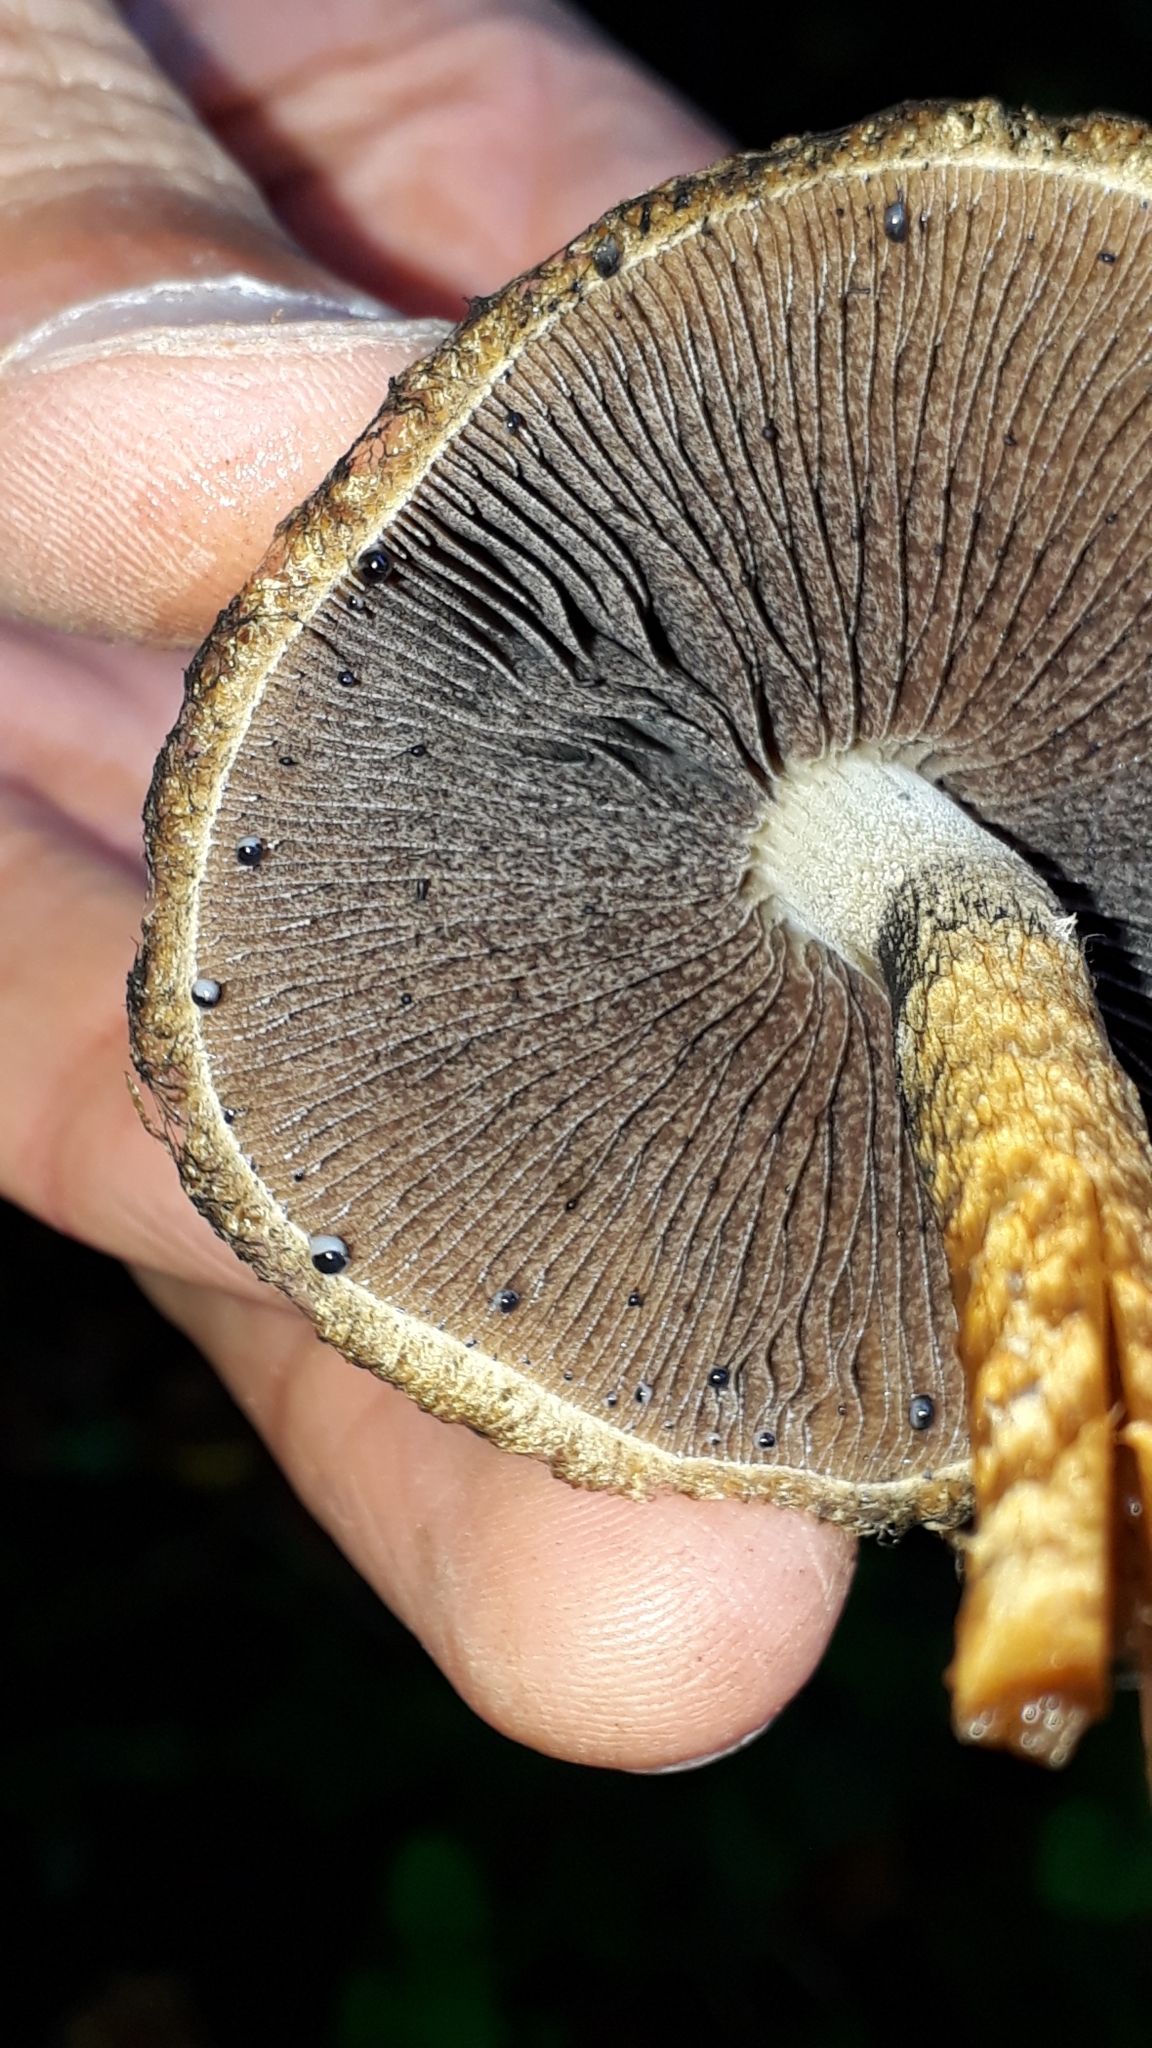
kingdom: Fungi
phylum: Basidiomycota
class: Agaricomycetes
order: Agaricales
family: Psathyrellaceae
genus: Lacrymaria
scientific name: Lacrymaria lacrymabunda
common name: Weeping widow
